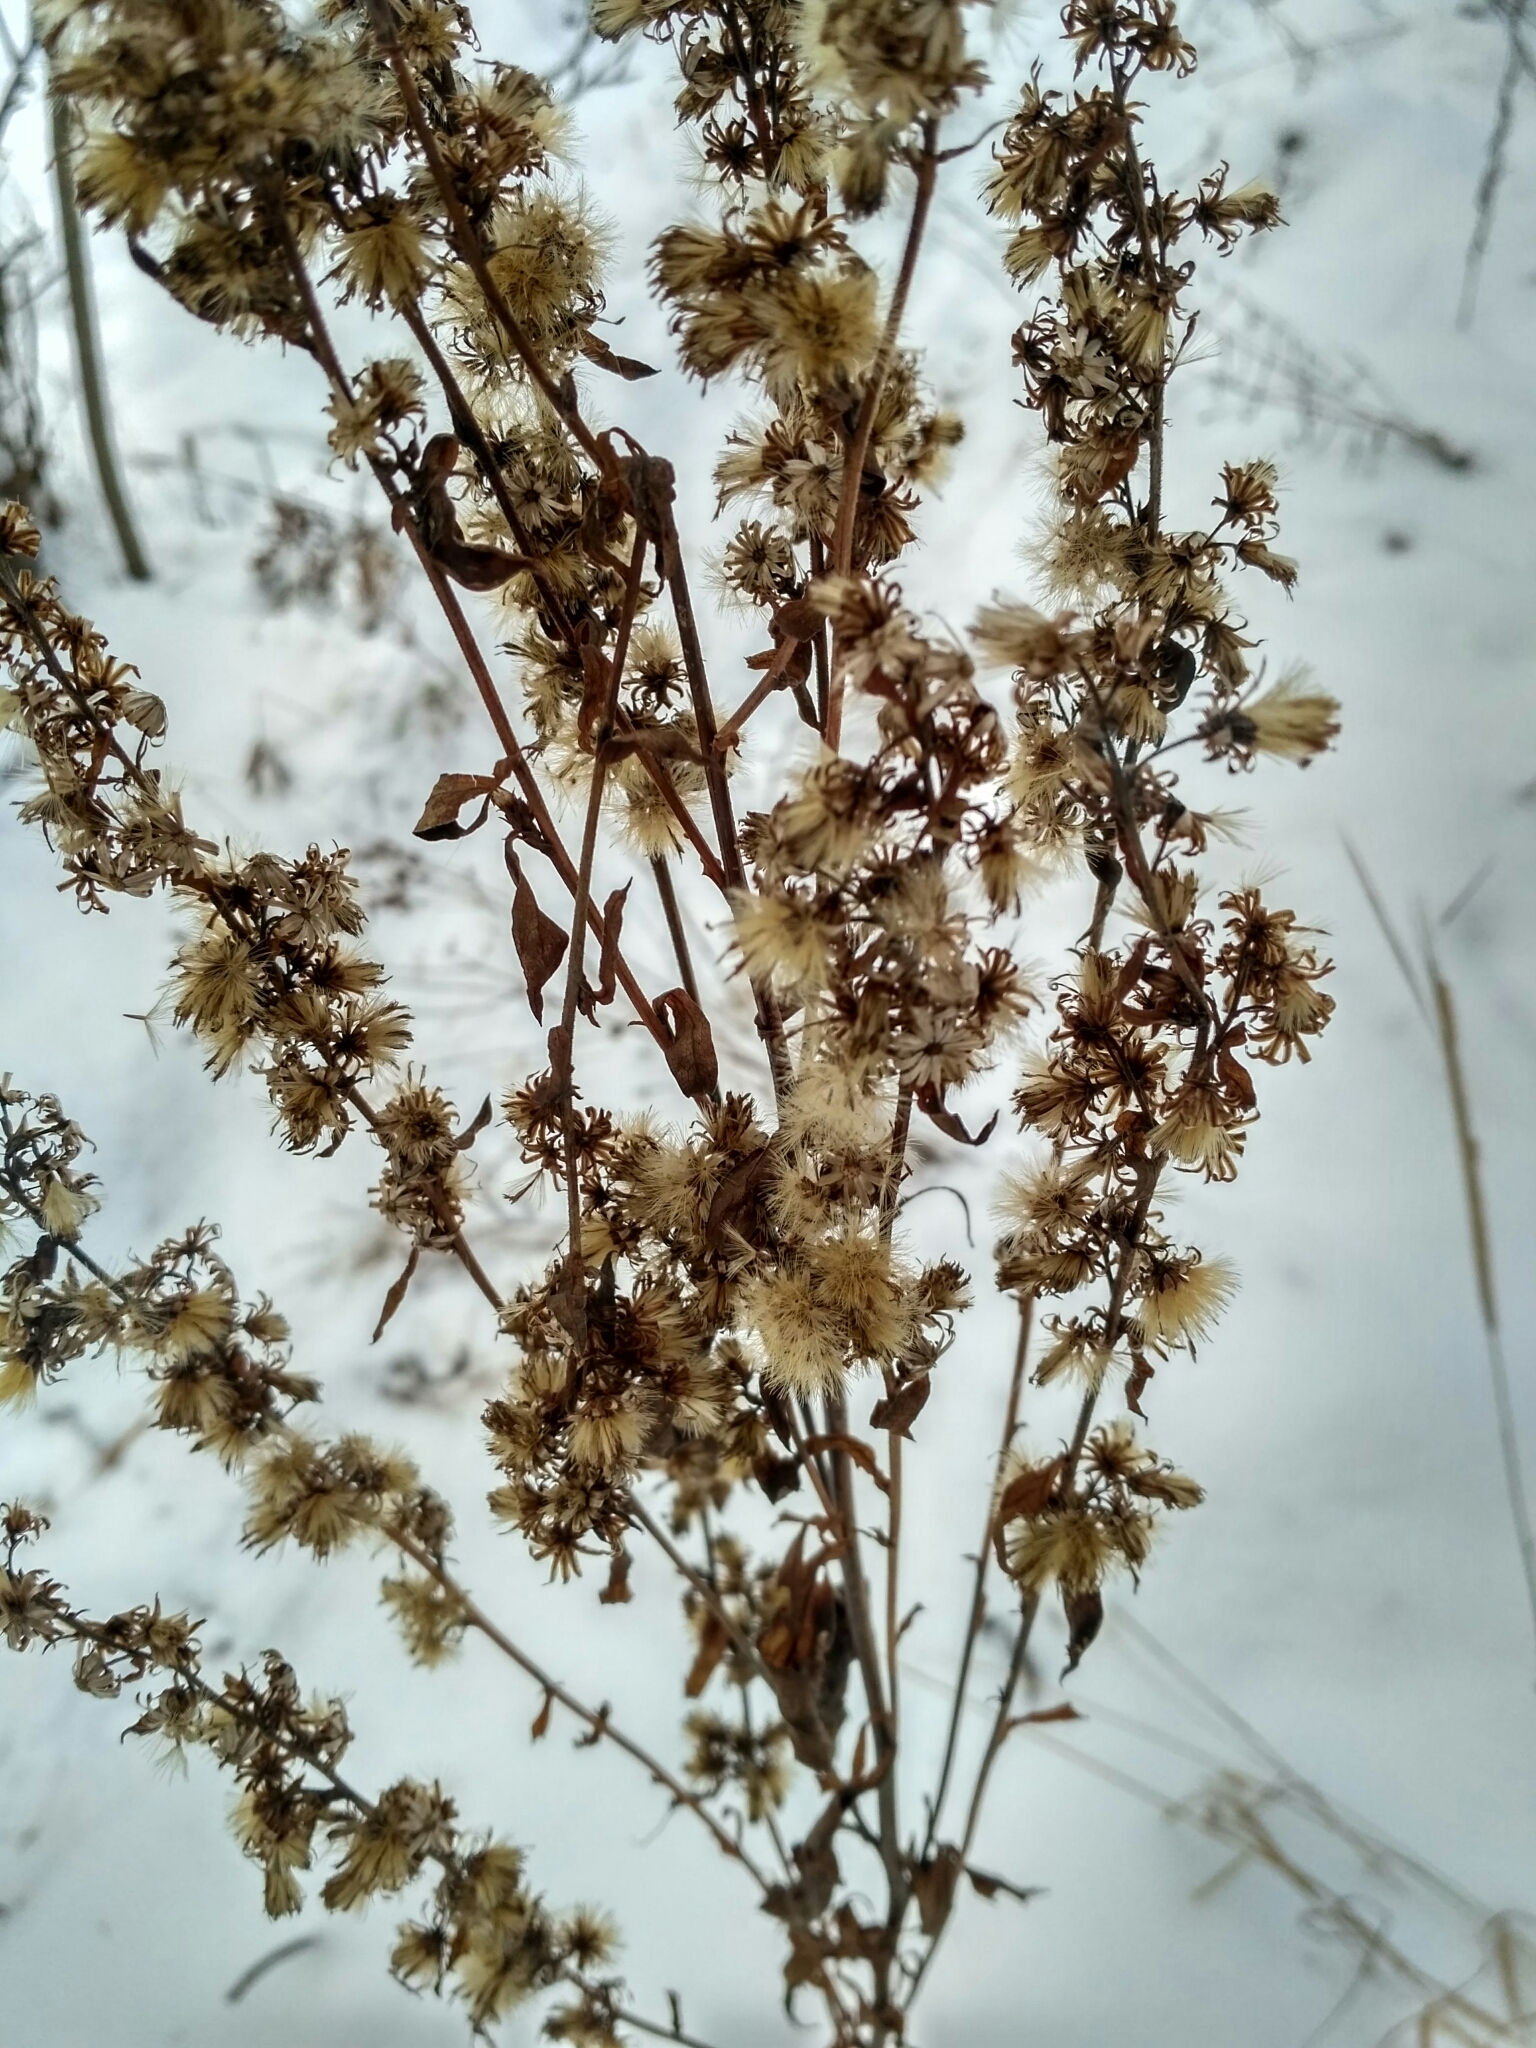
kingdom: Plantae
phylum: Tracheophyta
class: Magnoliopsida
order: Asterales
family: Asteraceae
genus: Solidago
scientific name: Solidago virgaurea
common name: Goldenrod
